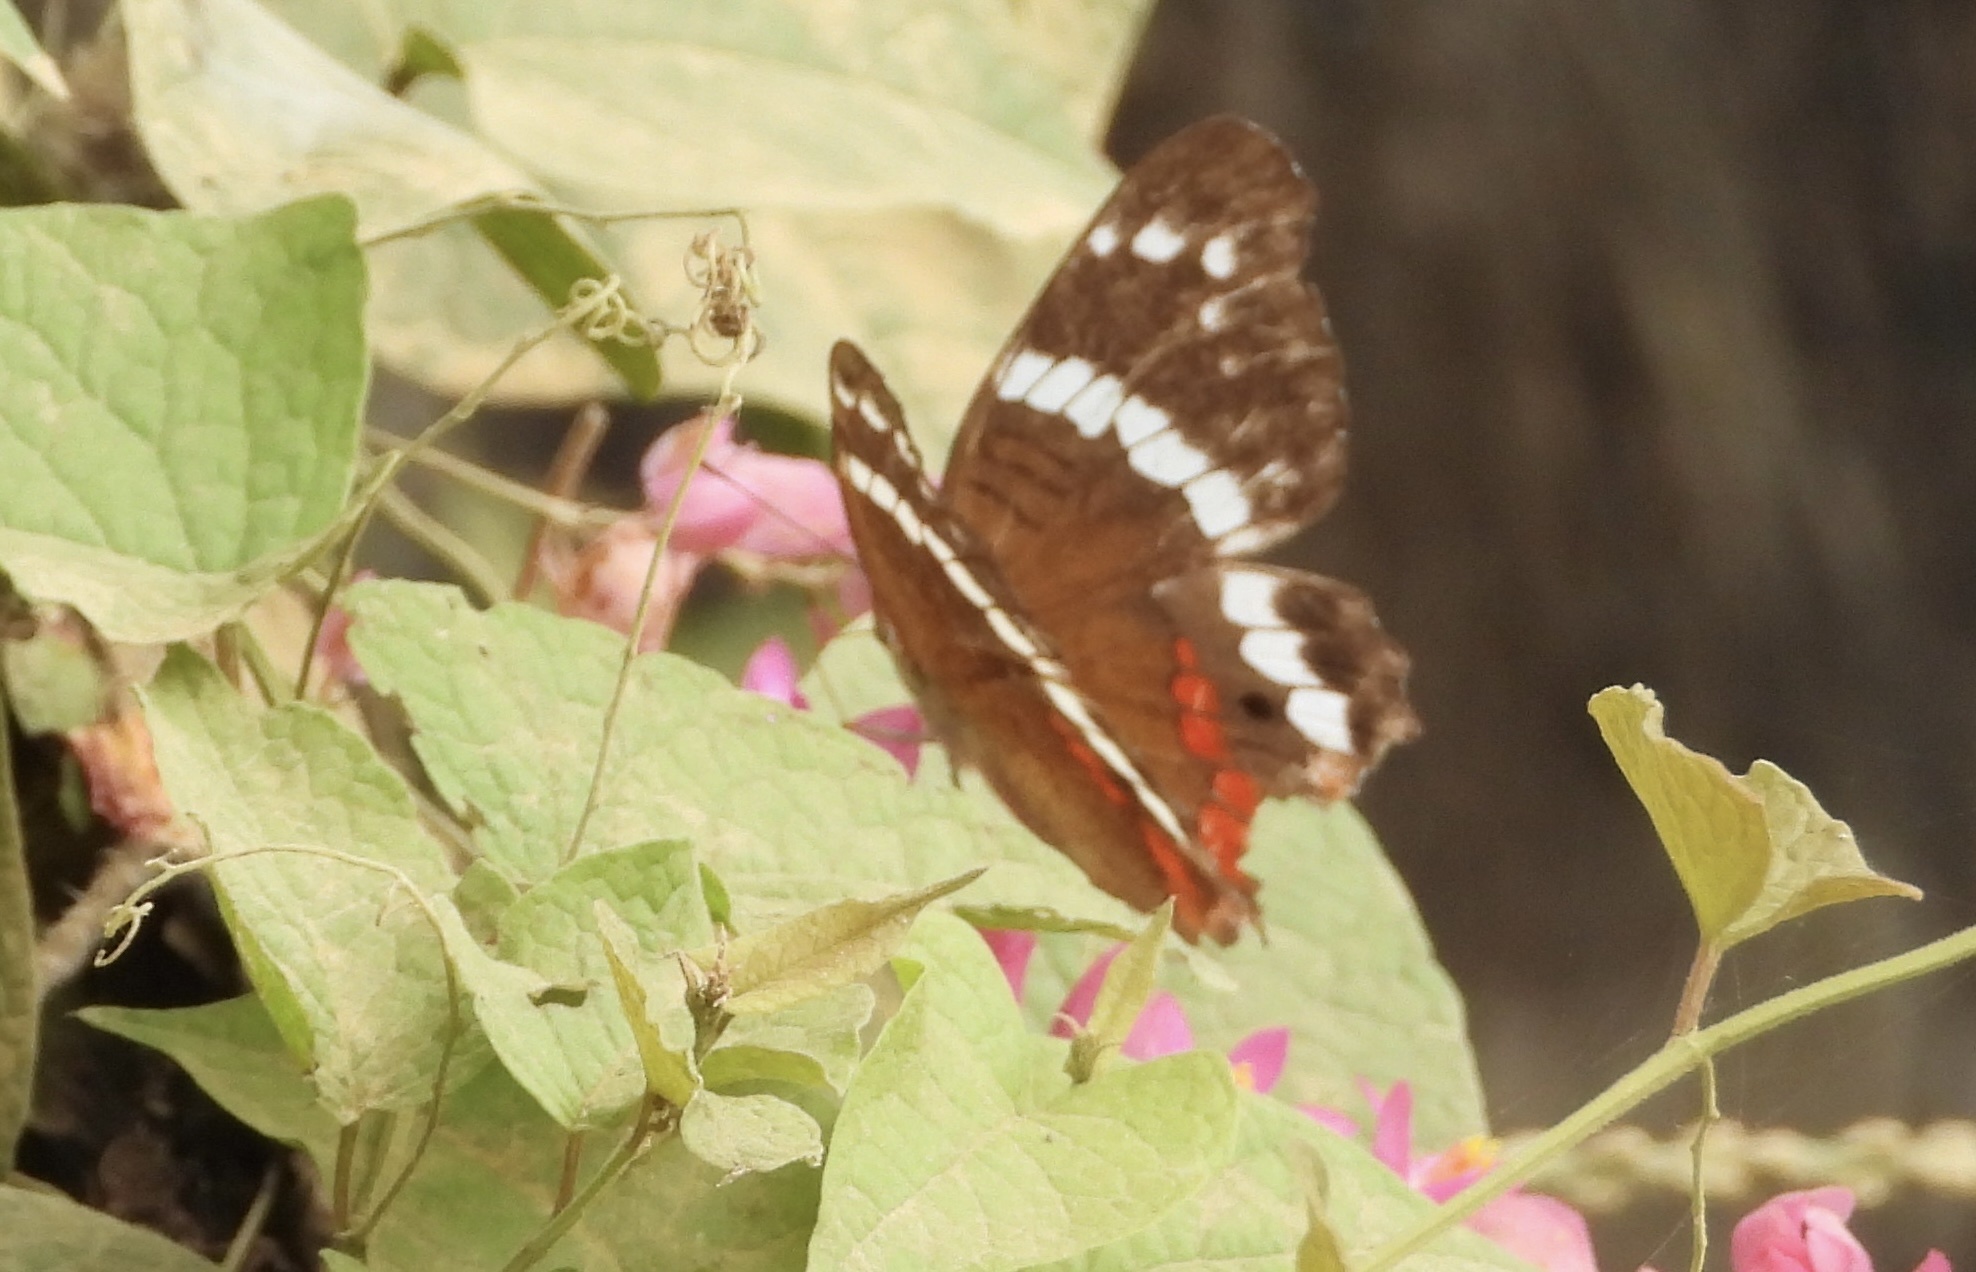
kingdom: Animalia
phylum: Arthropoda
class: Insecta
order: Lepidoptera
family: Nymphalidae
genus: Anartia
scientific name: Anartia fatima
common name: Banded peacock
